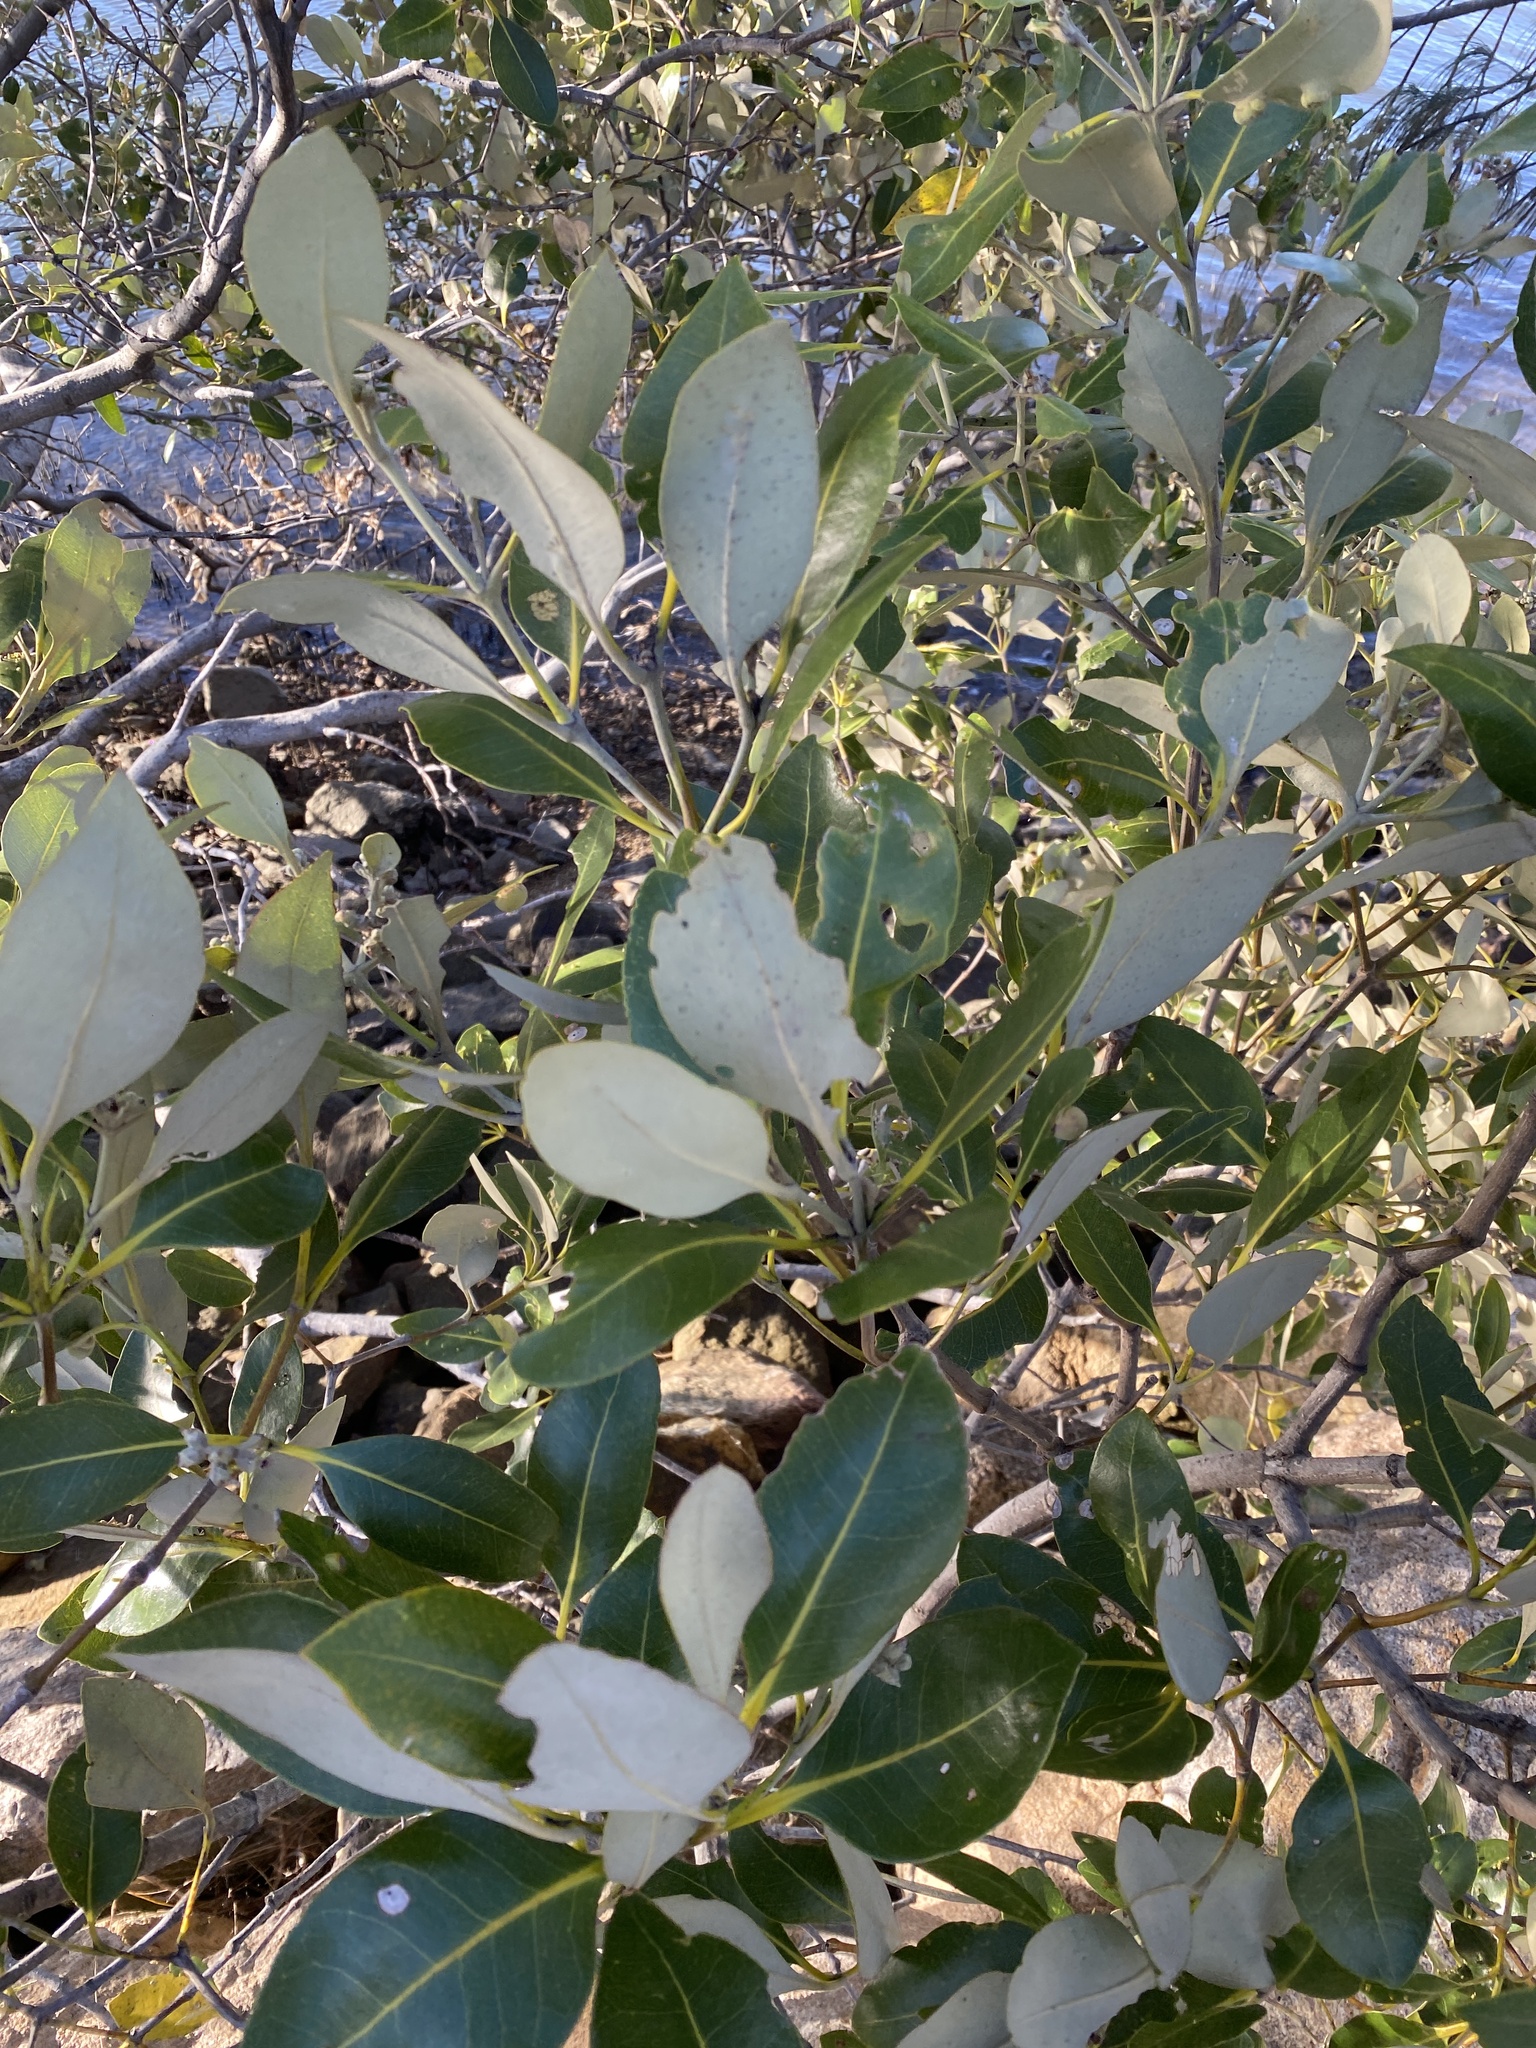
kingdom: Plantae
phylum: Tracheophyta
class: Magnoliopsida
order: Lamiales
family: Acanthaceae
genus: Avicennia
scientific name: Avicennia marina
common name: Gray mangrove
